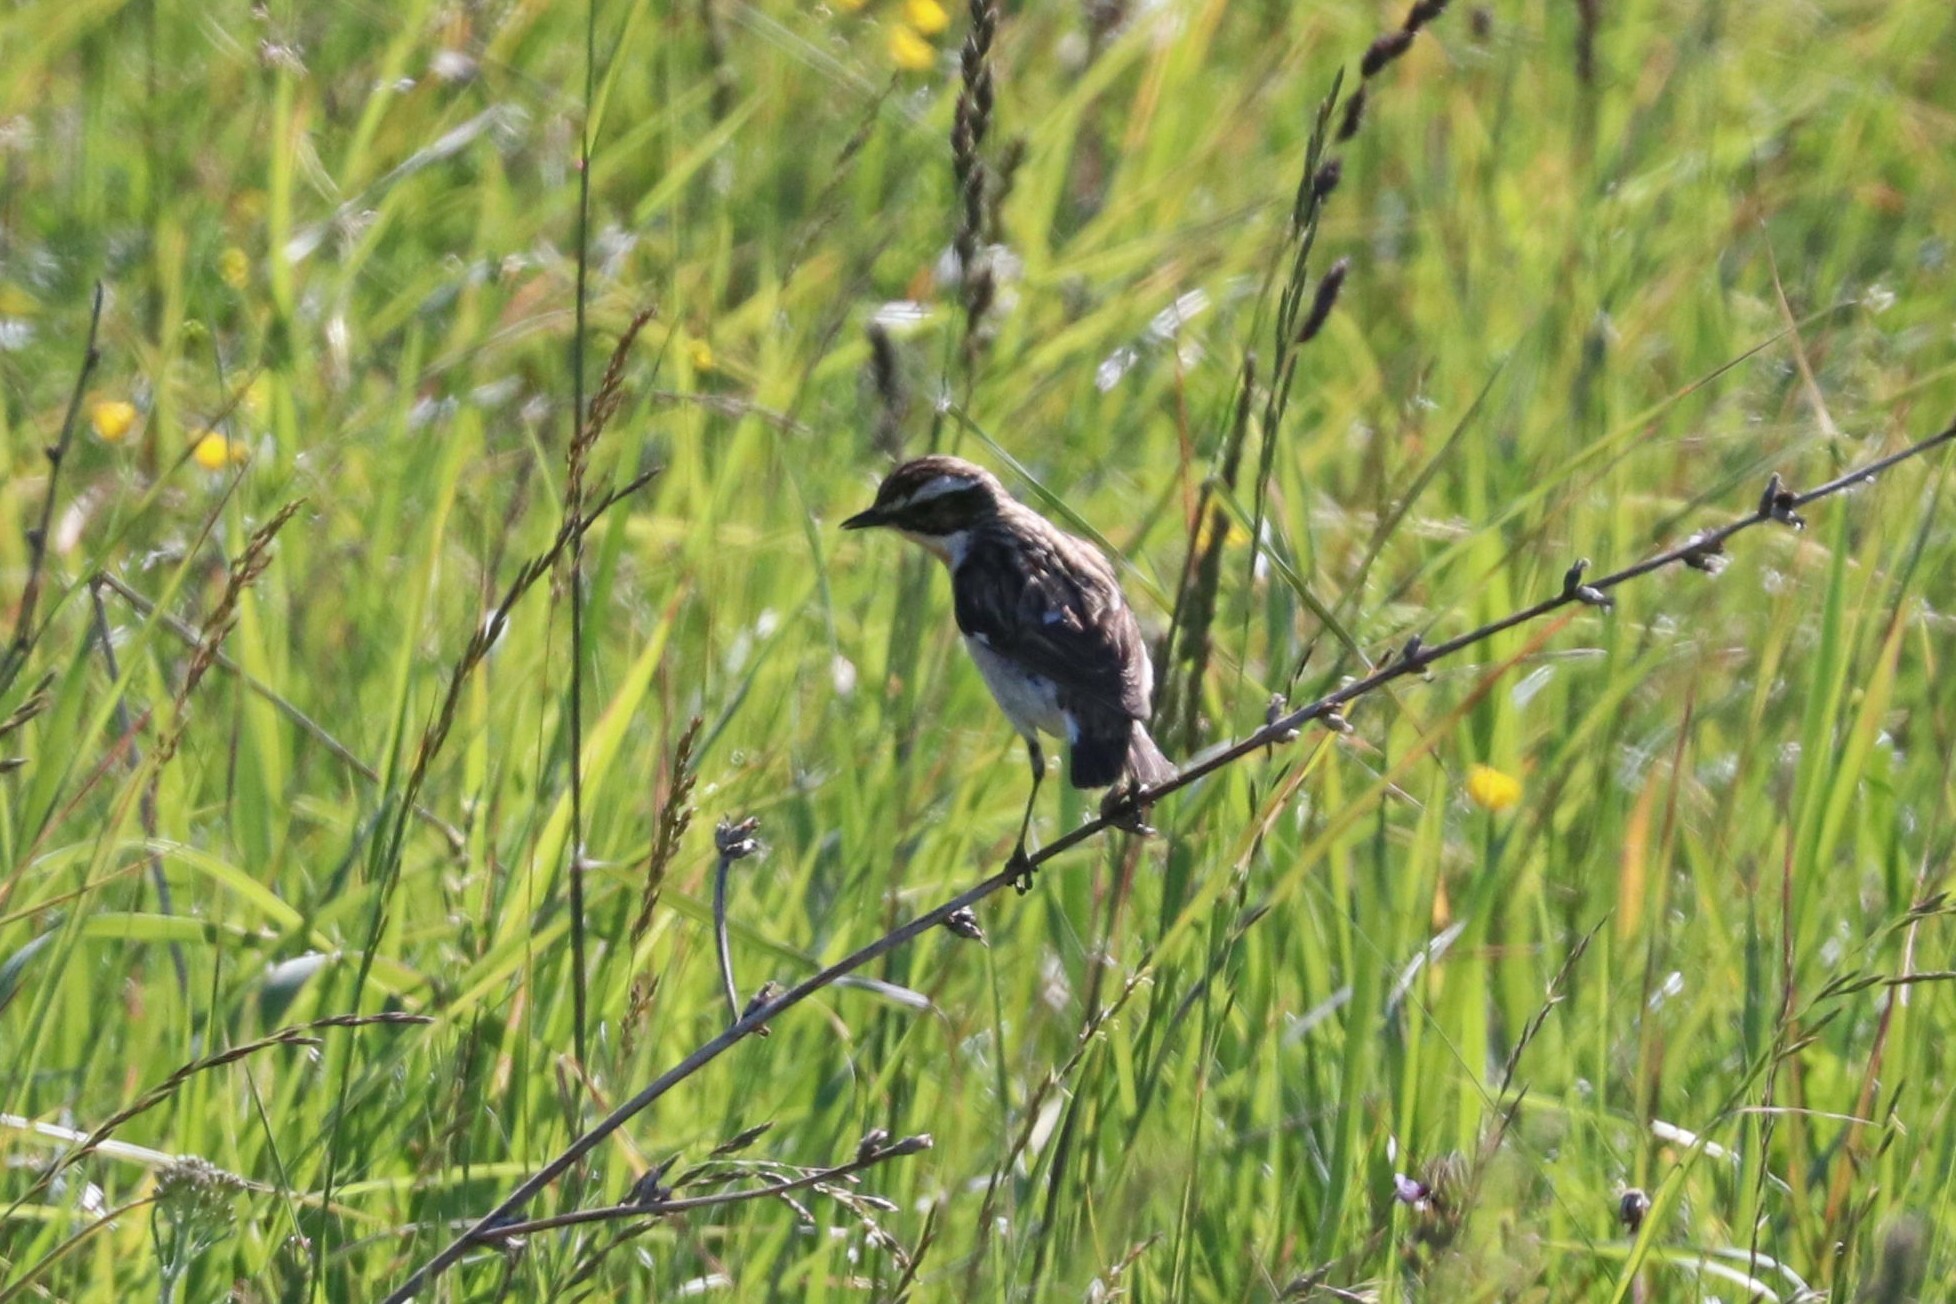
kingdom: Animalia
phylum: Chordata
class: Aves
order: Passeriformes
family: Muscicapidae
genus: Saxicola
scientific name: Saxicola rubetra
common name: Whinchat
